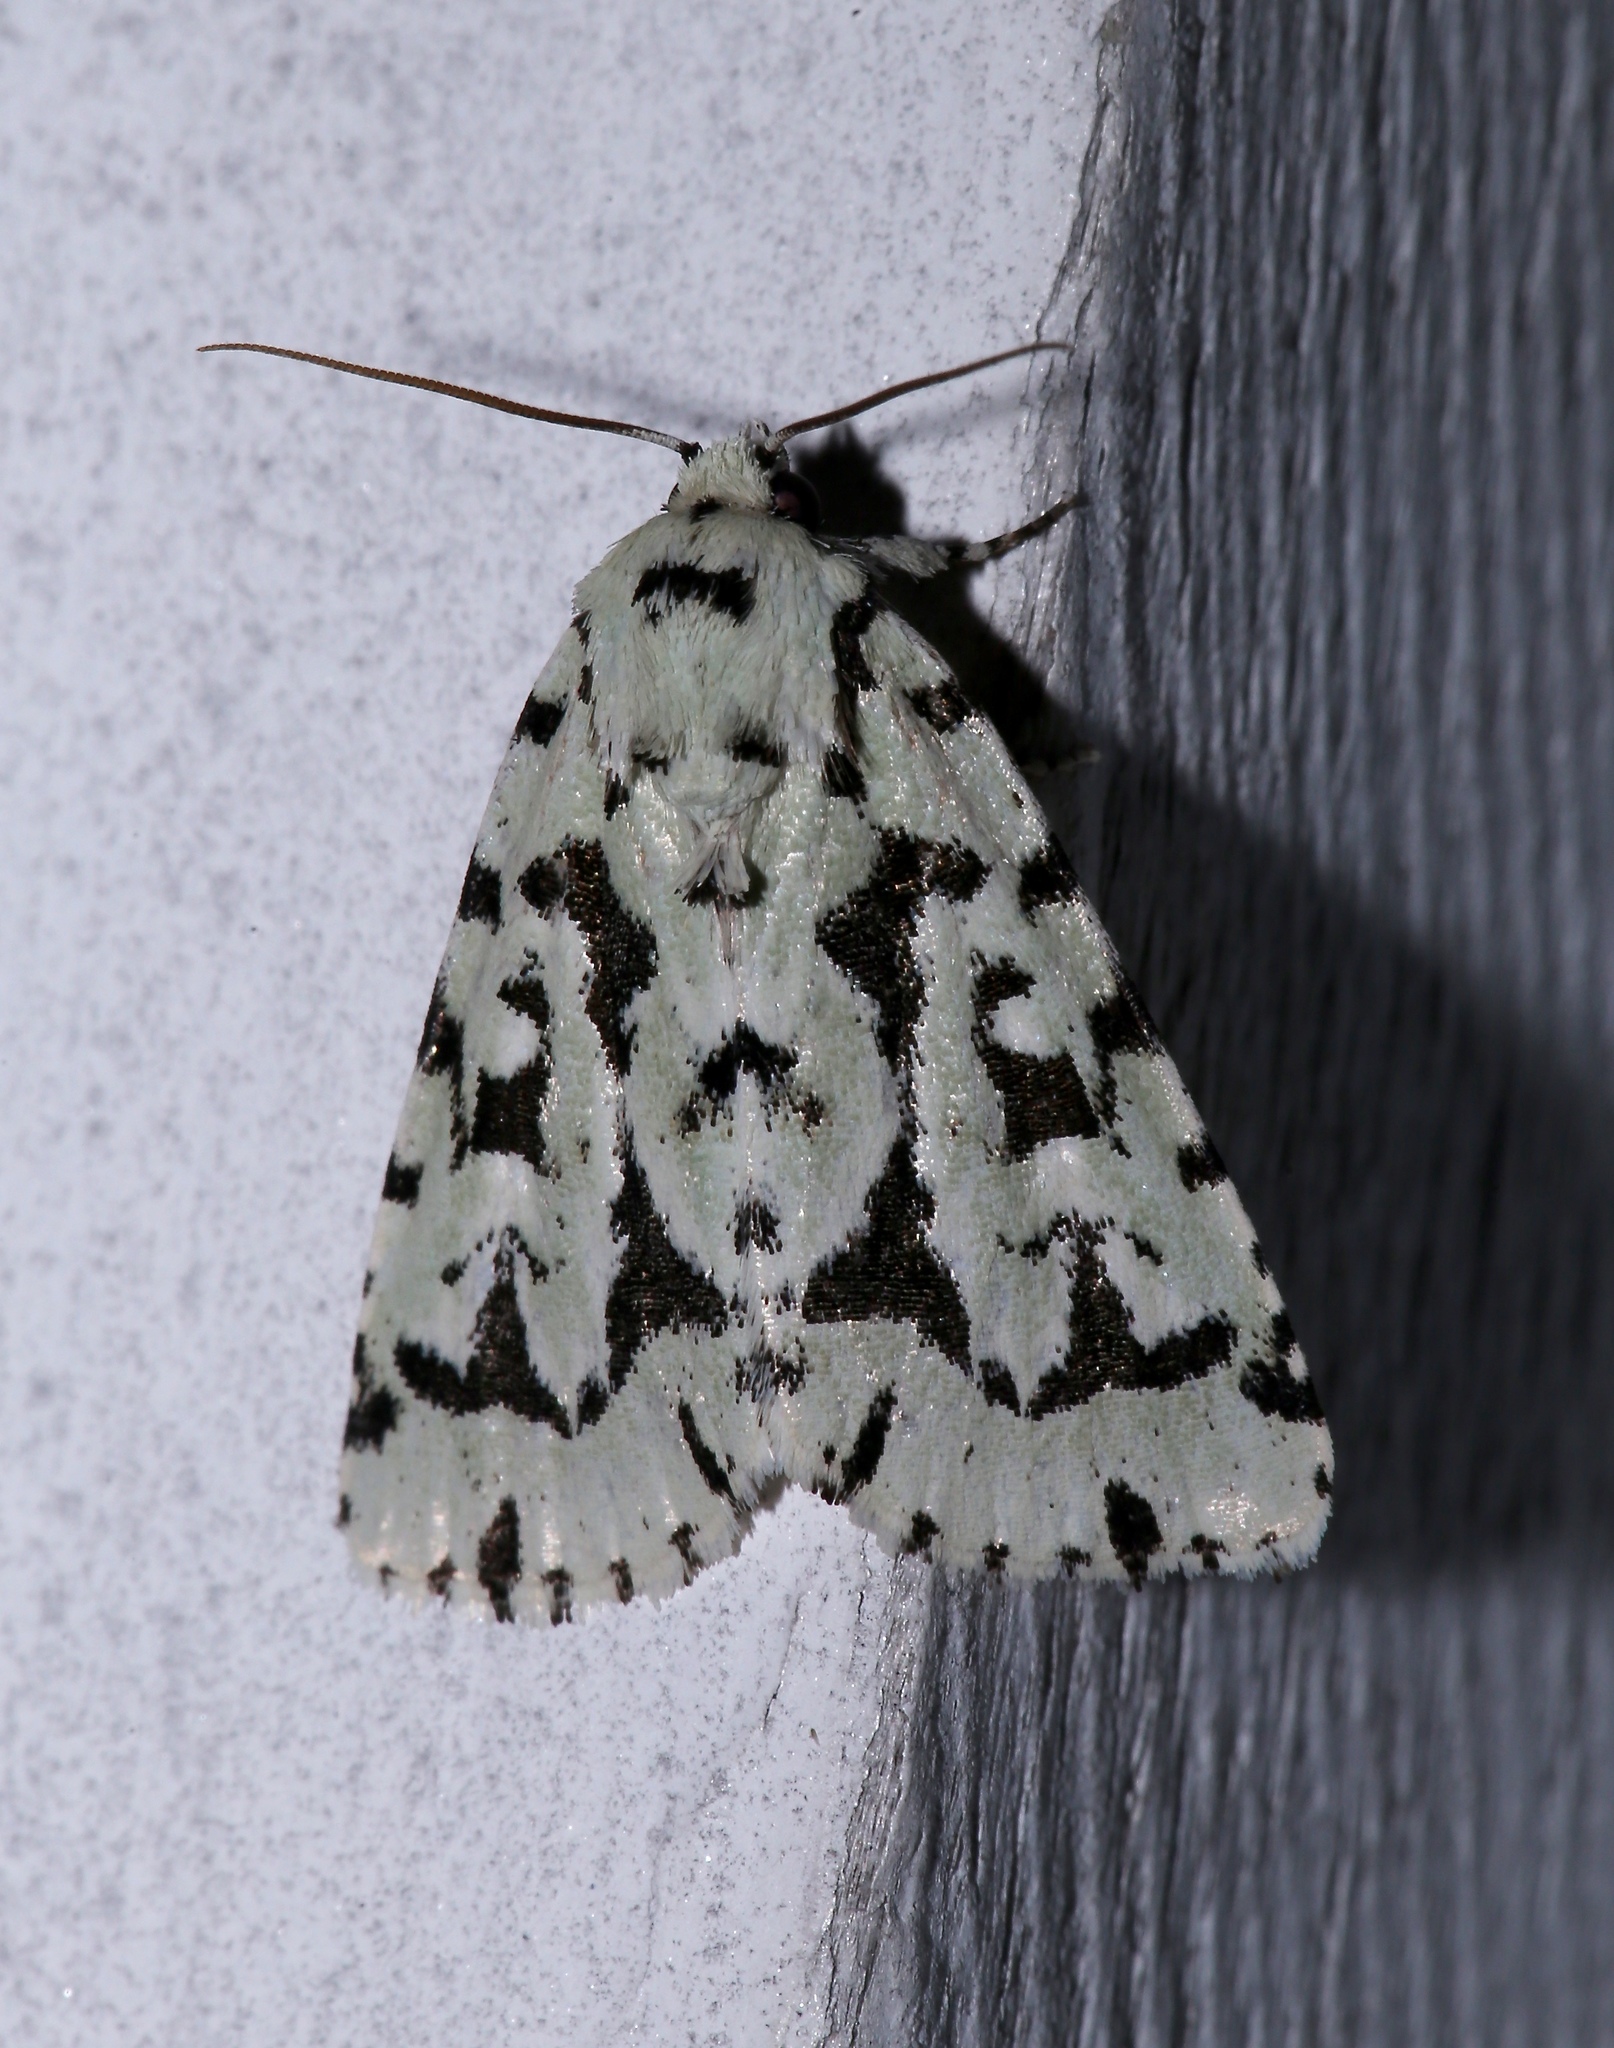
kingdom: Animalia
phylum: Arthropoda
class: Insecta
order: Lepidoptera
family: Noctuidae
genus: Acronicta
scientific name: Acronicta fallax
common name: Green marvel
